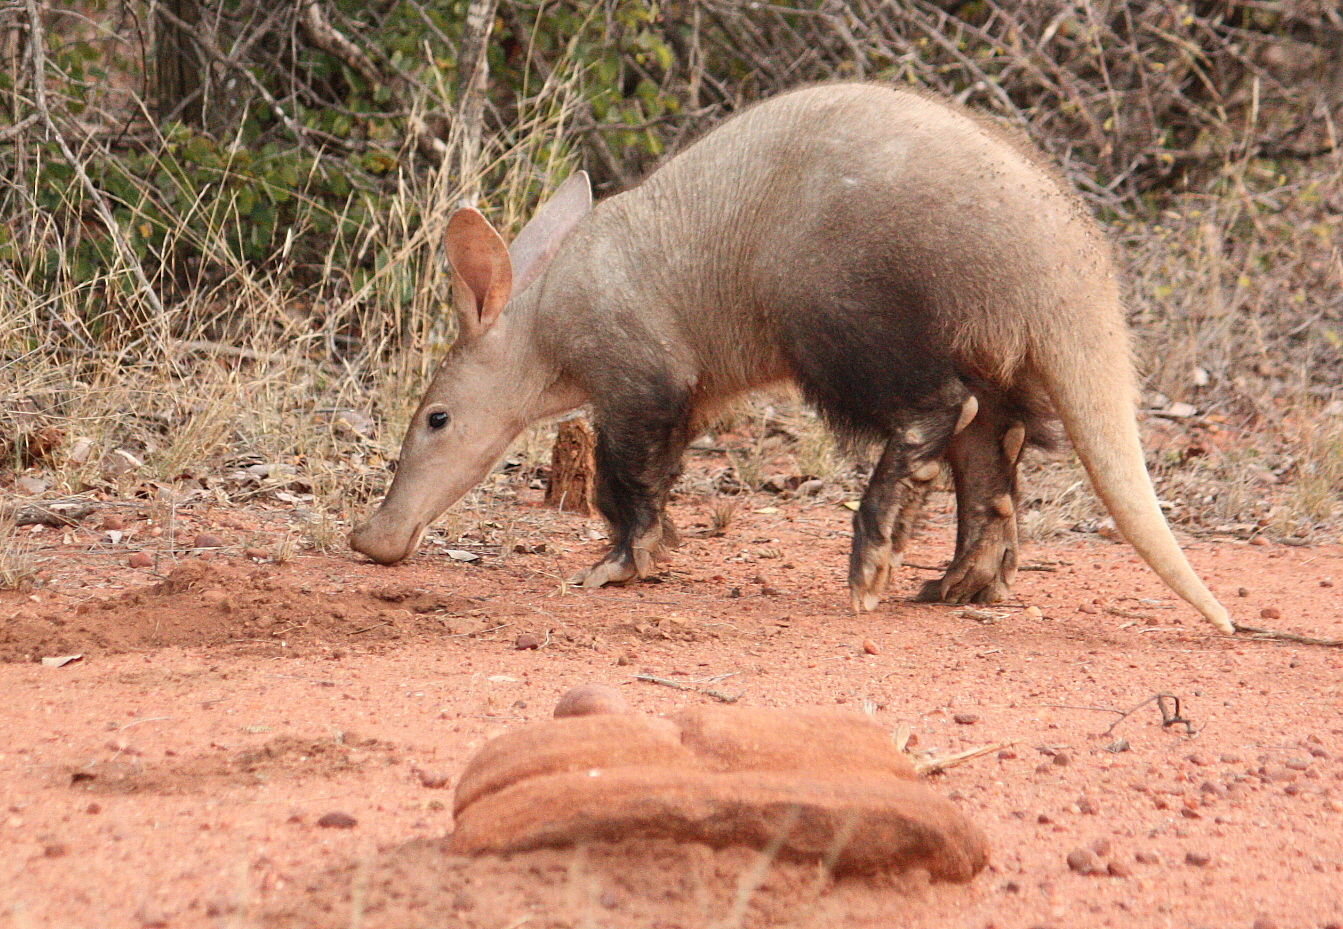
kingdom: Animalia
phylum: Chordata
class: Mammalia
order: Tubulidentata
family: Orycteropodidae
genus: Orycteropus
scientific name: Orycteropus afer
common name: Aardvark
